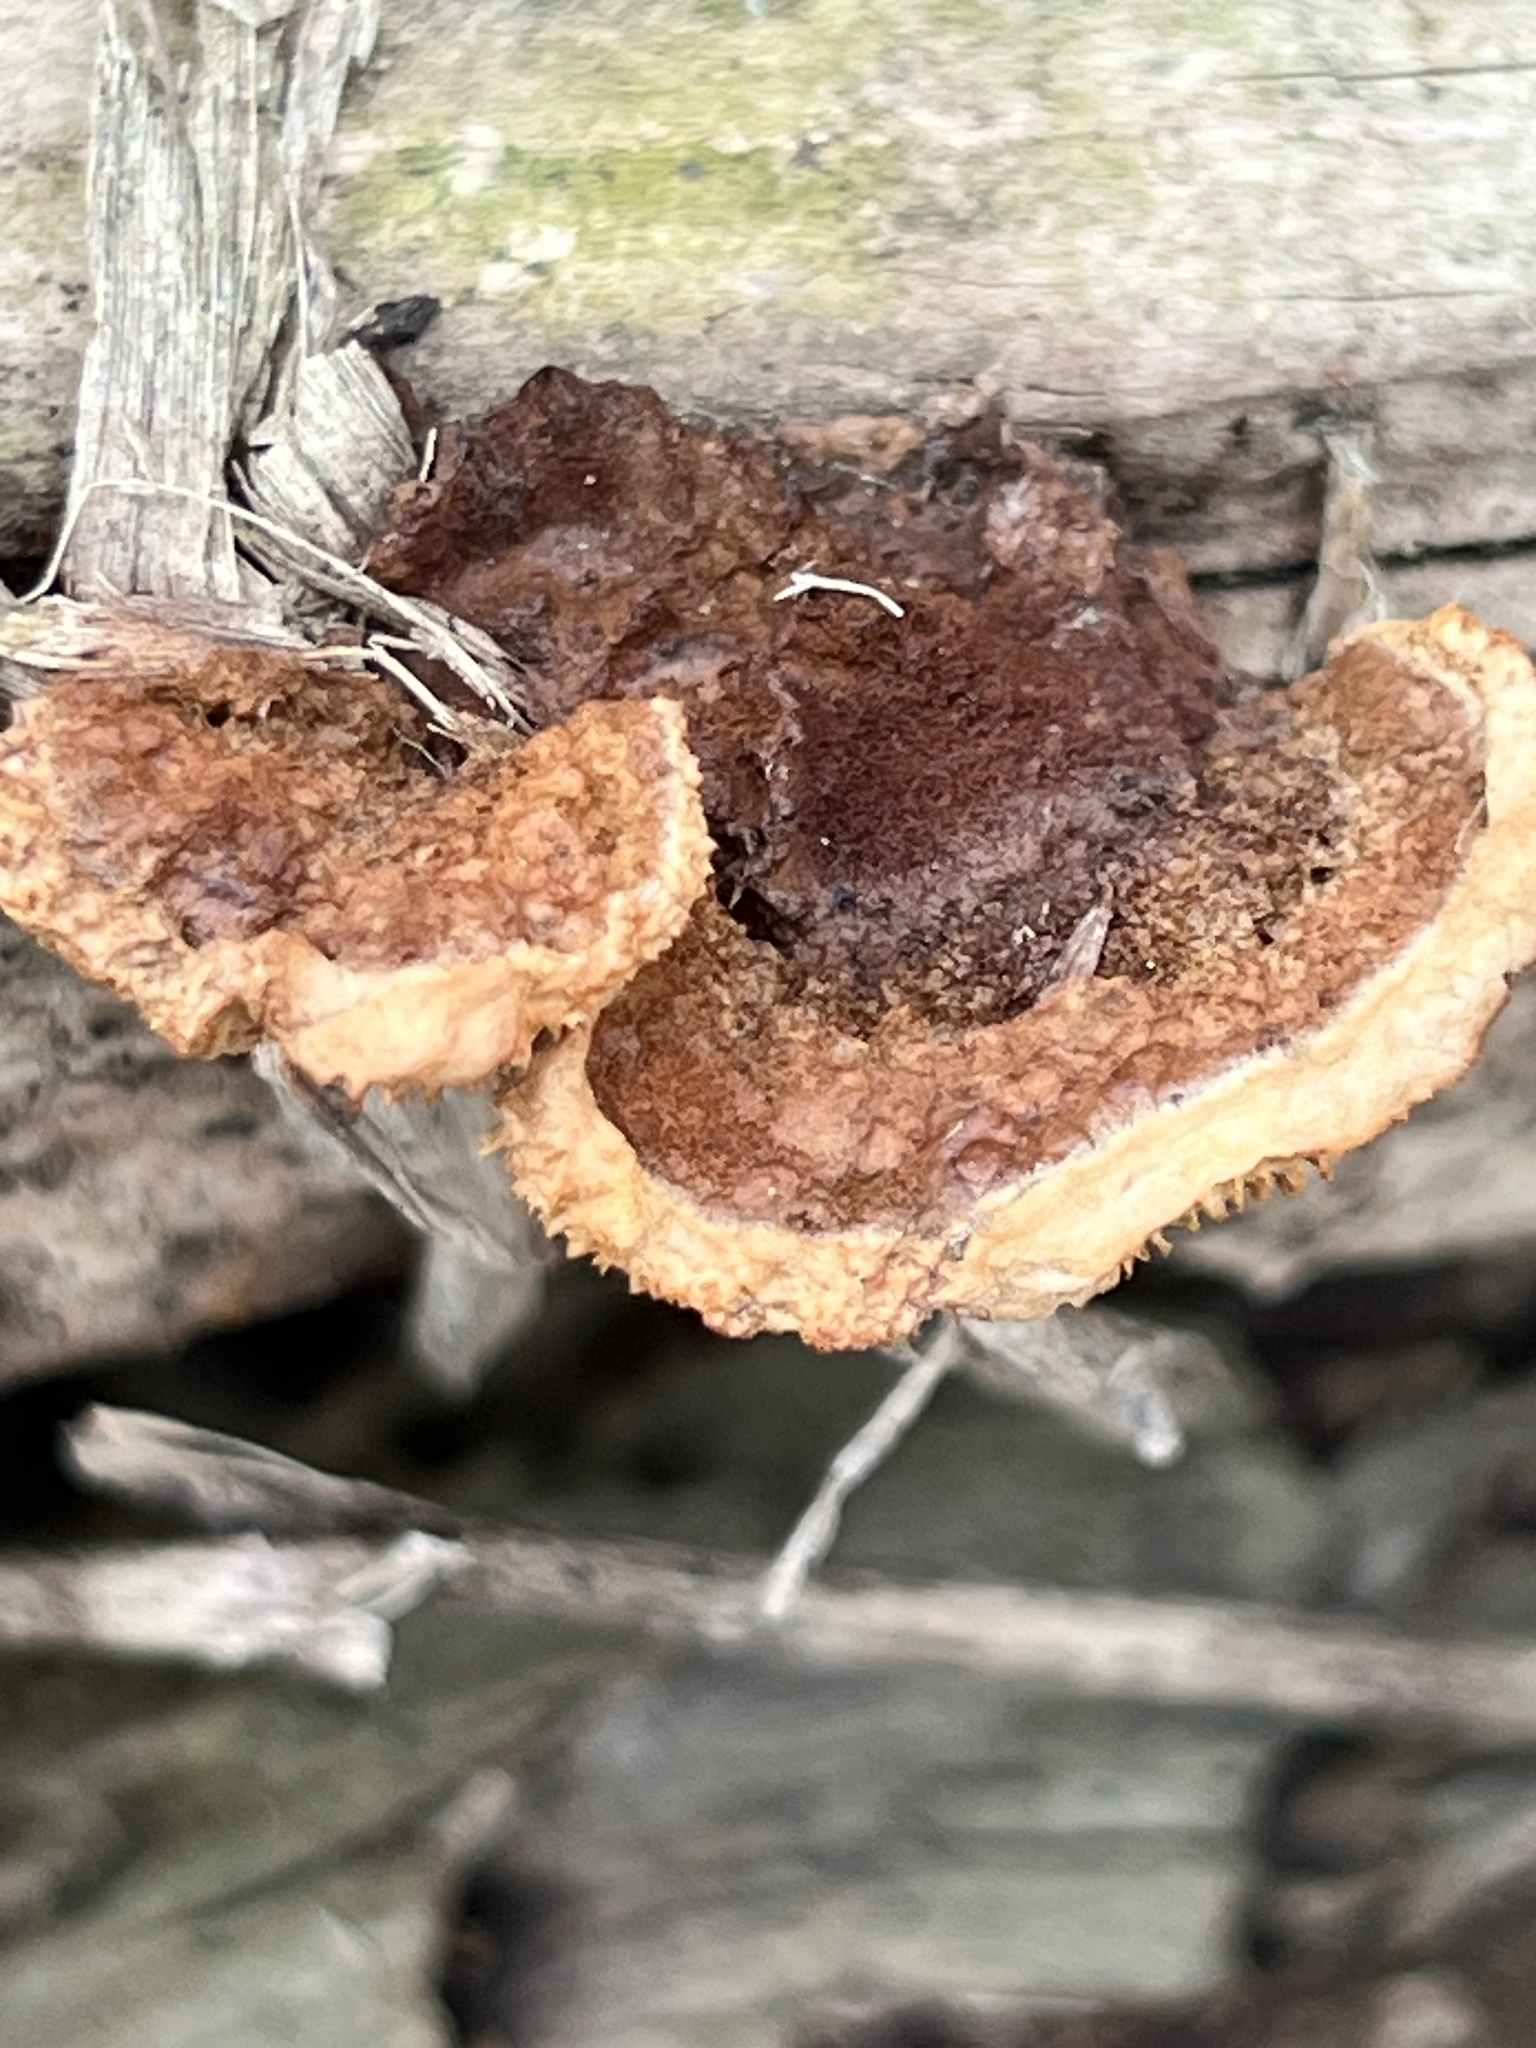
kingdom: Fungi
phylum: Basidiomycota
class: Agaricomycetes
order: Gloeophyllales
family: Gloeophyllaceae
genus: Gloeophyllum
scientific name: Gloeophyllum sepiarium
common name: Conifer mazegill
